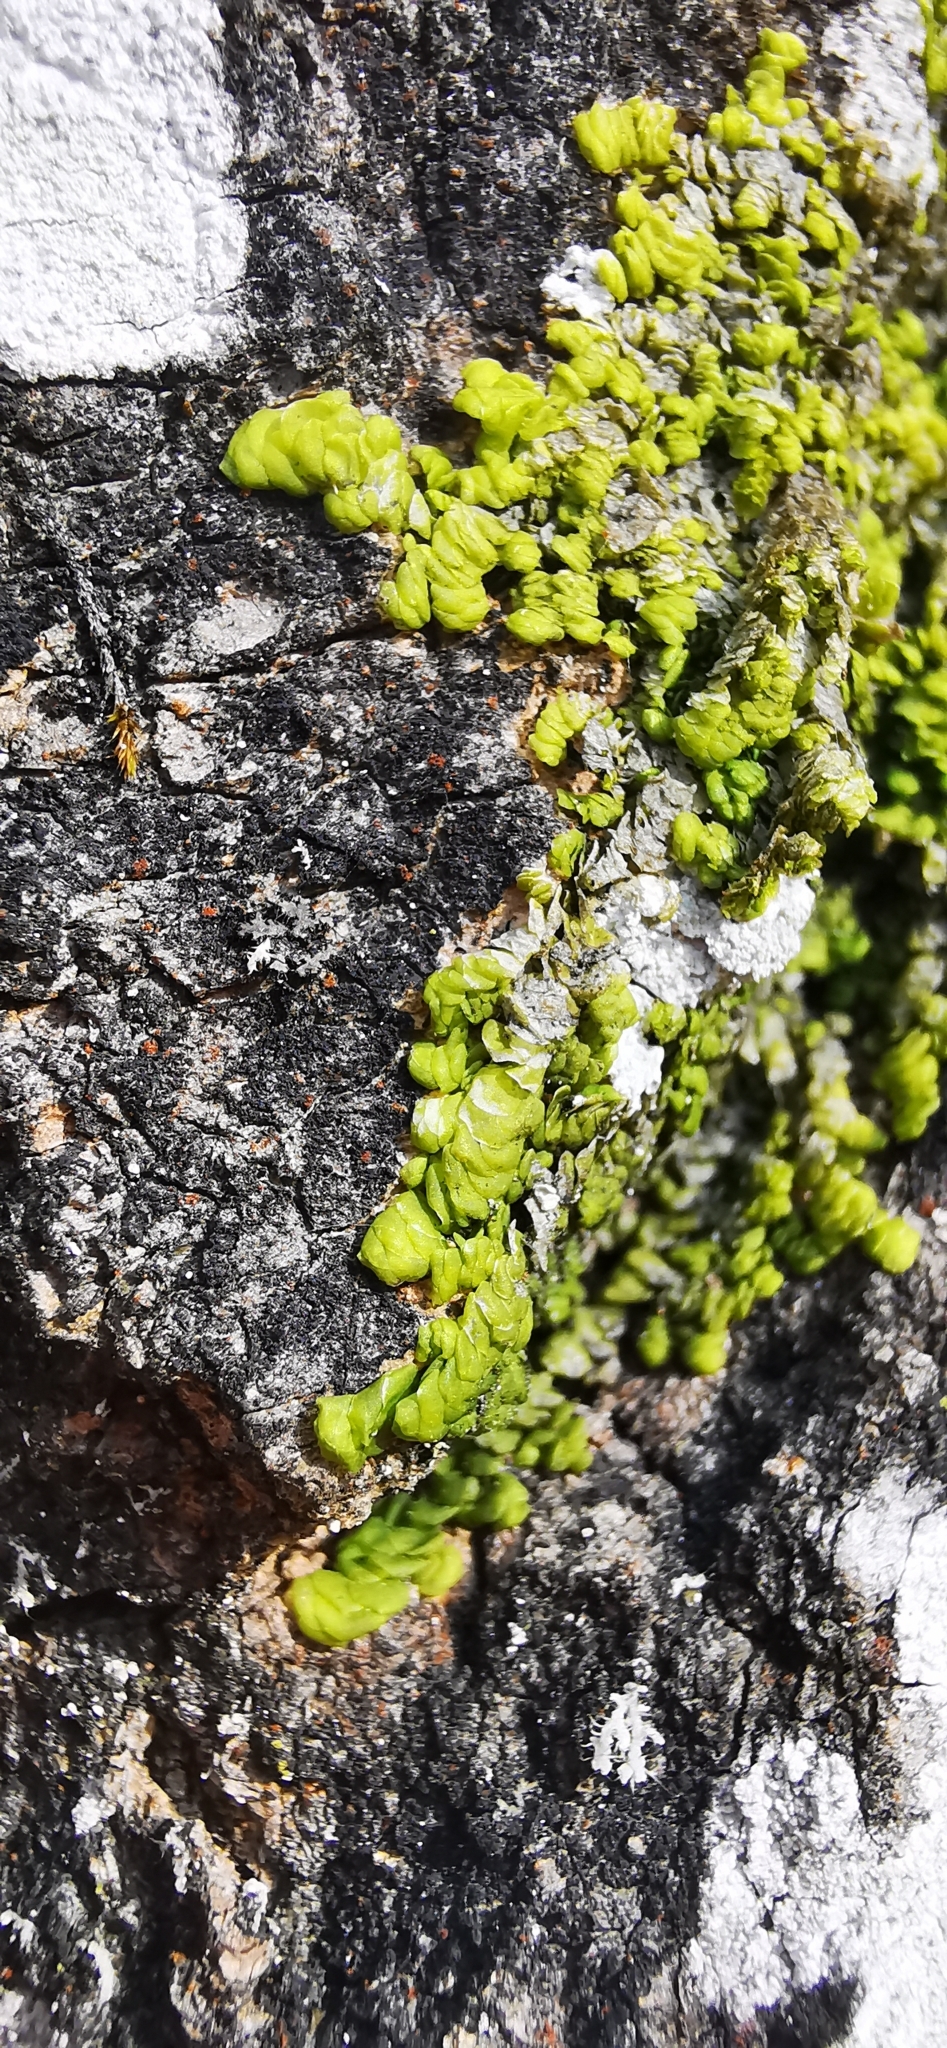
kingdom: Plantae
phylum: Marchantiophyta
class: Jungermanniopsida
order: Porellales
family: Radulaceae
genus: Radula
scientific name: Radula complanata
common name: Flat-leaved scalewort
